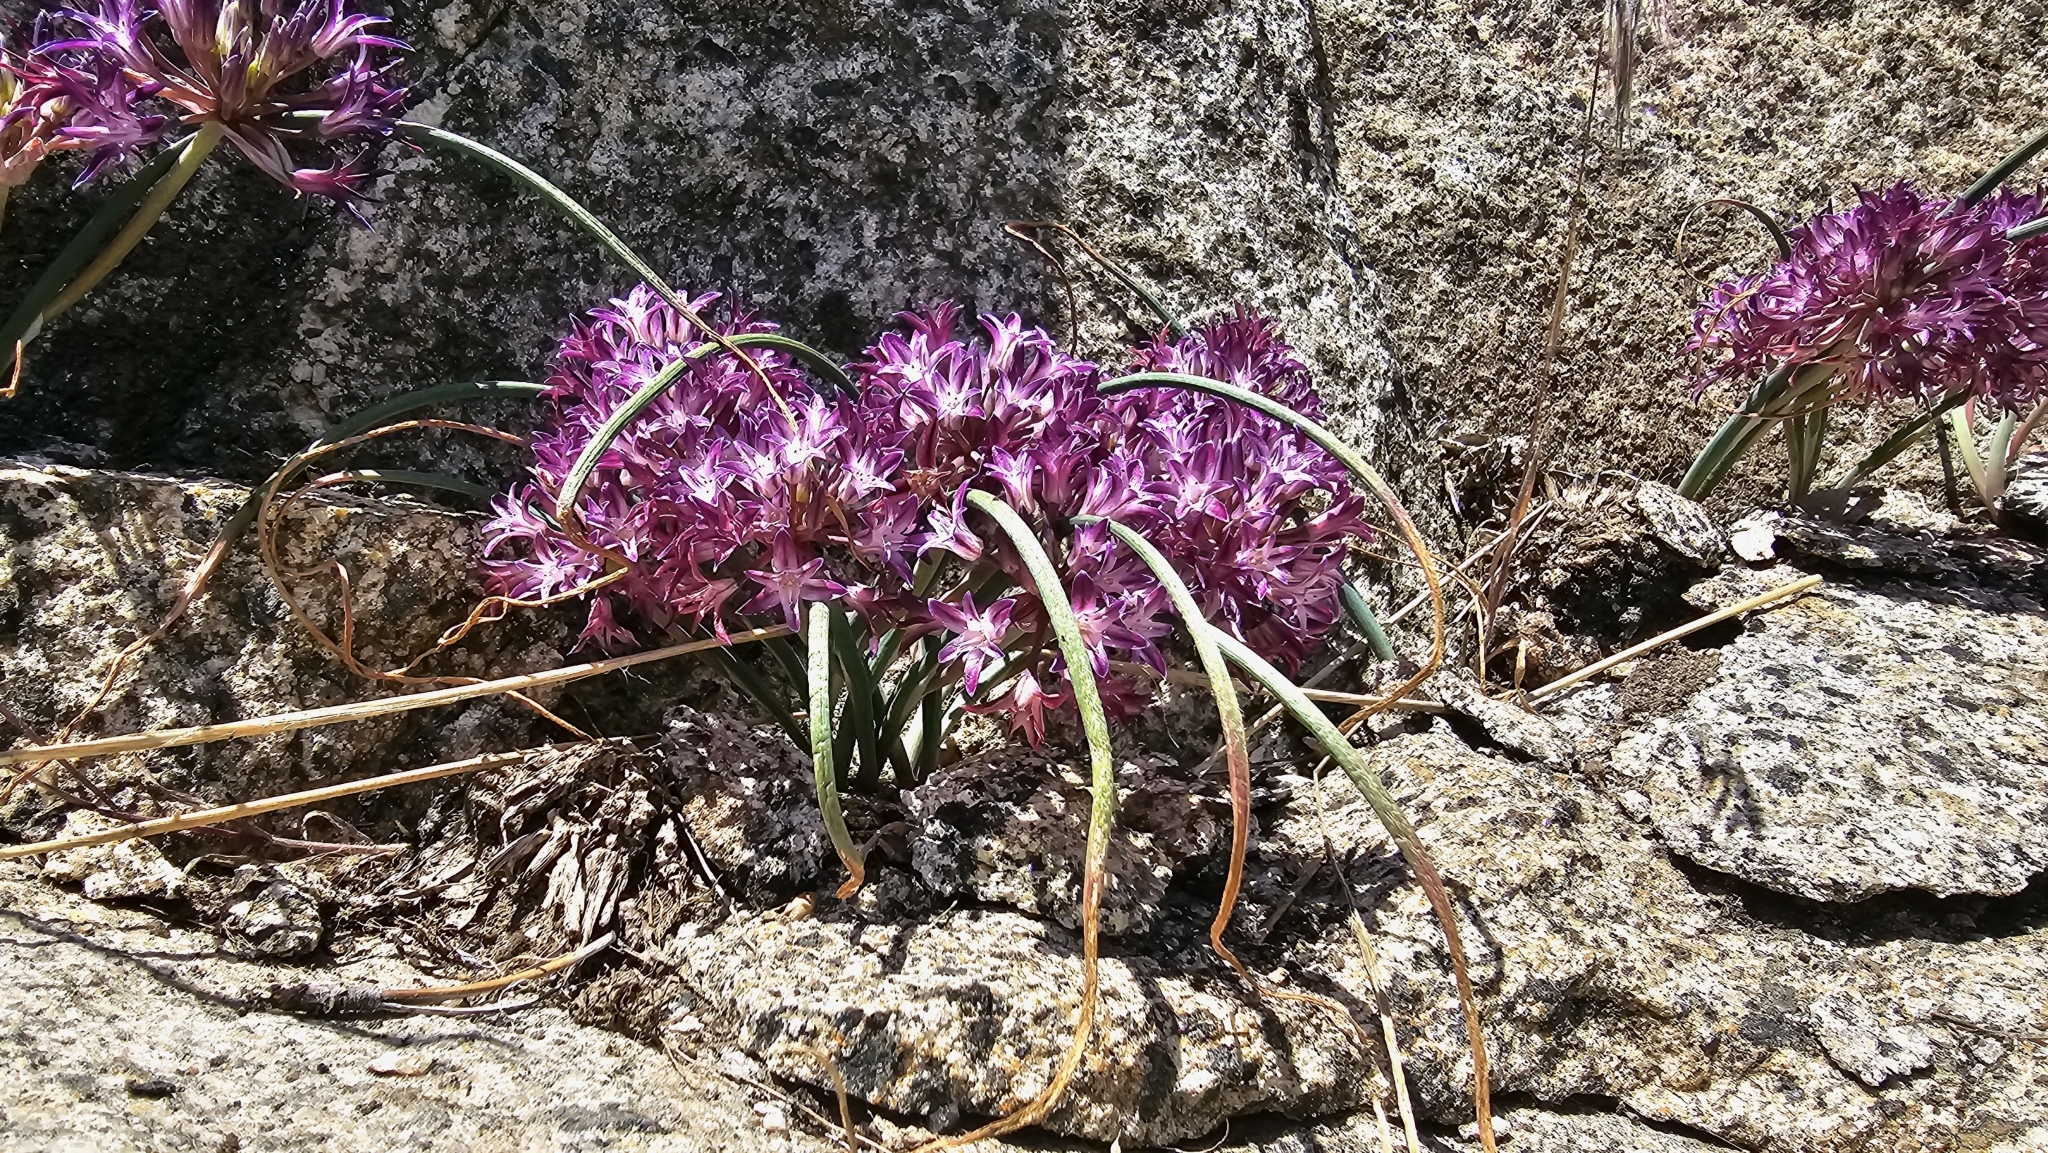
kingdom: Plantae
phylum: Tracheophyta
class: Liliopsida
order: Asparagales
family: Amaryllidaceae
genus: Allium
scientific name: Allium abramsii
